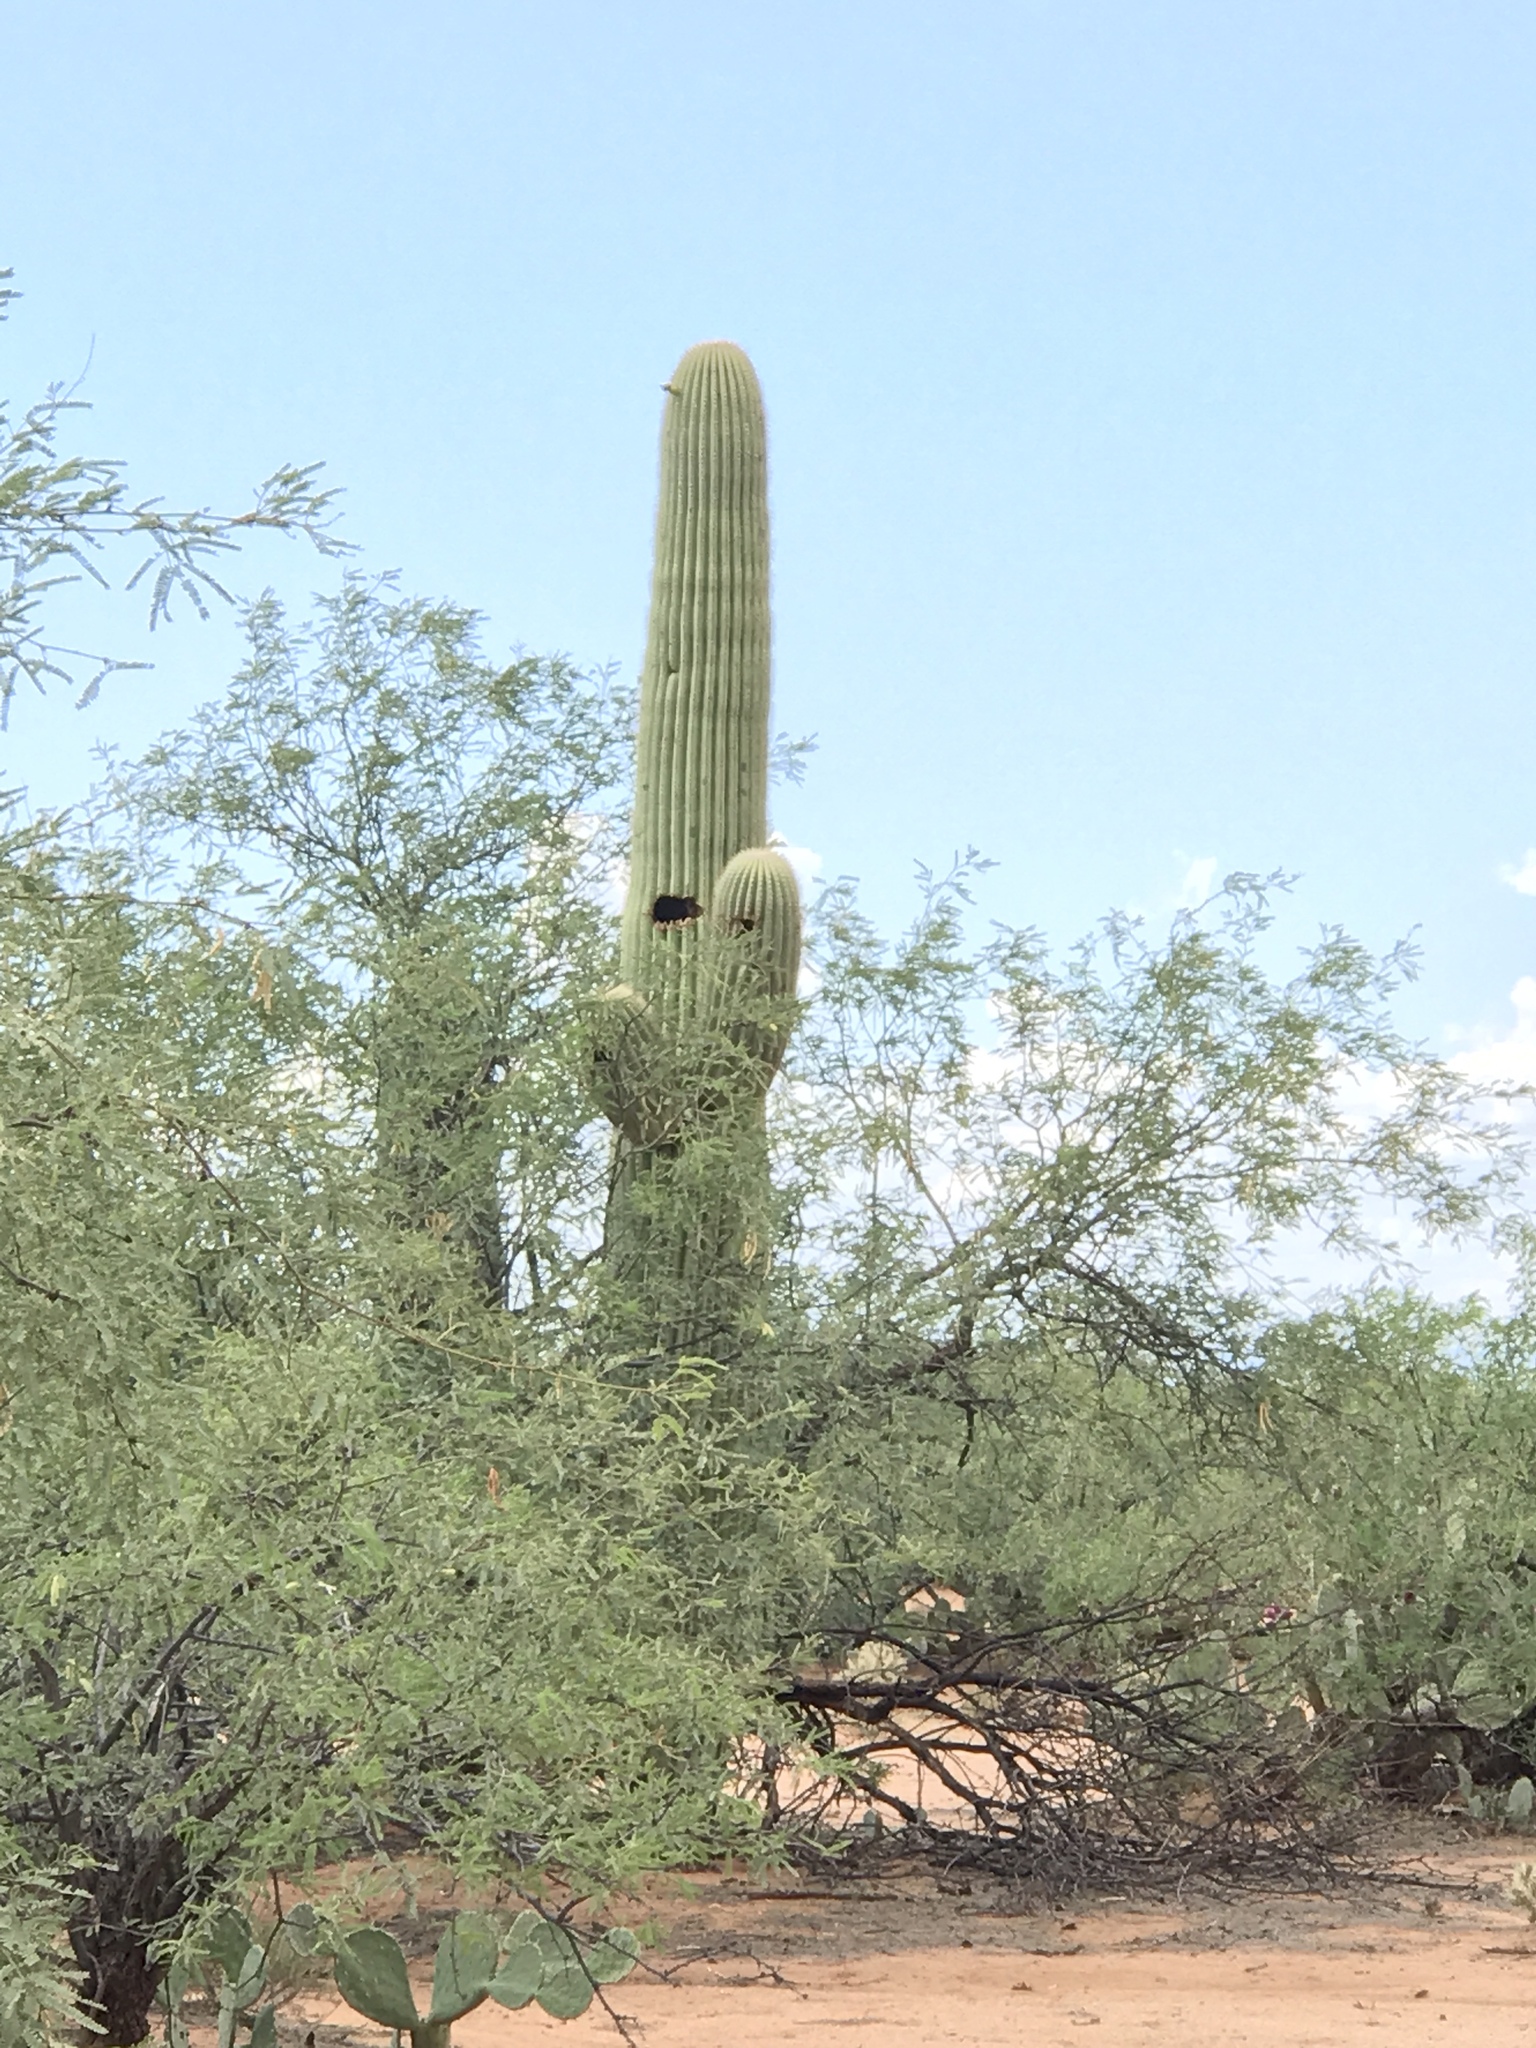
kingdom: Plantae
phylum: Tracheophyta
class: Magnoliopsida
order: Caryophyllales
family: Cactaceae
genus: Carnegiea
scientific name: Carnegiea gigantea
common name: Saguaro
